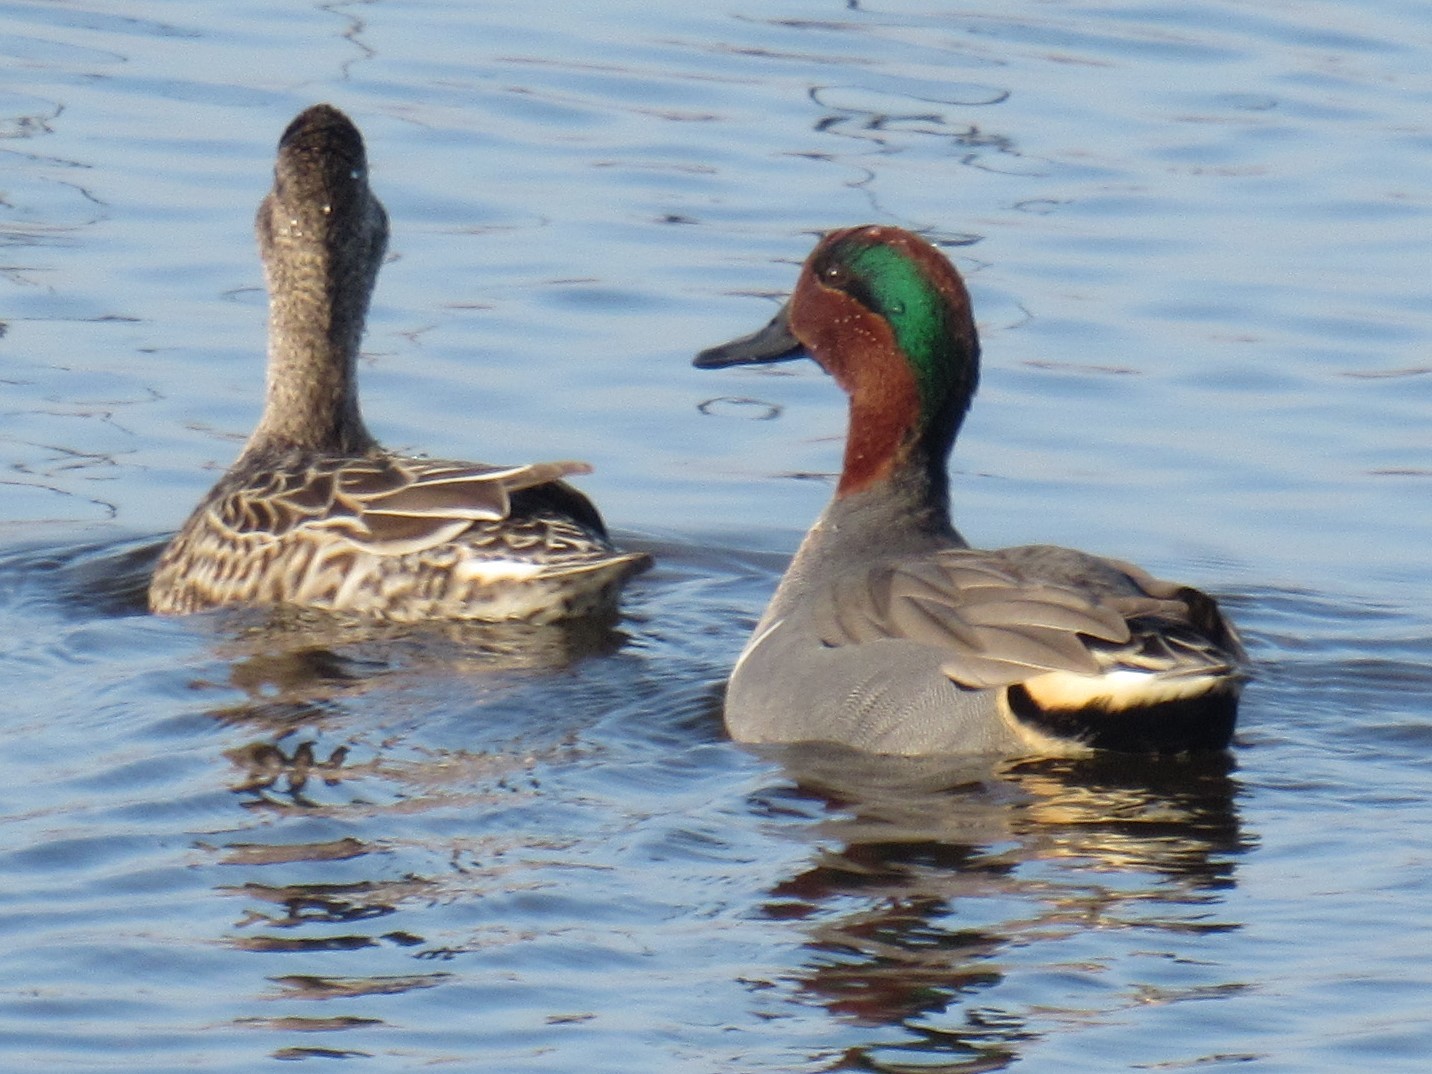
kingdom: Animalia
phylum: Chordata
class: Aves
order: Anseriformes
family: Anatidae
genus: Anas
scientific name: Anas crecca
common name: Eurasian teal
